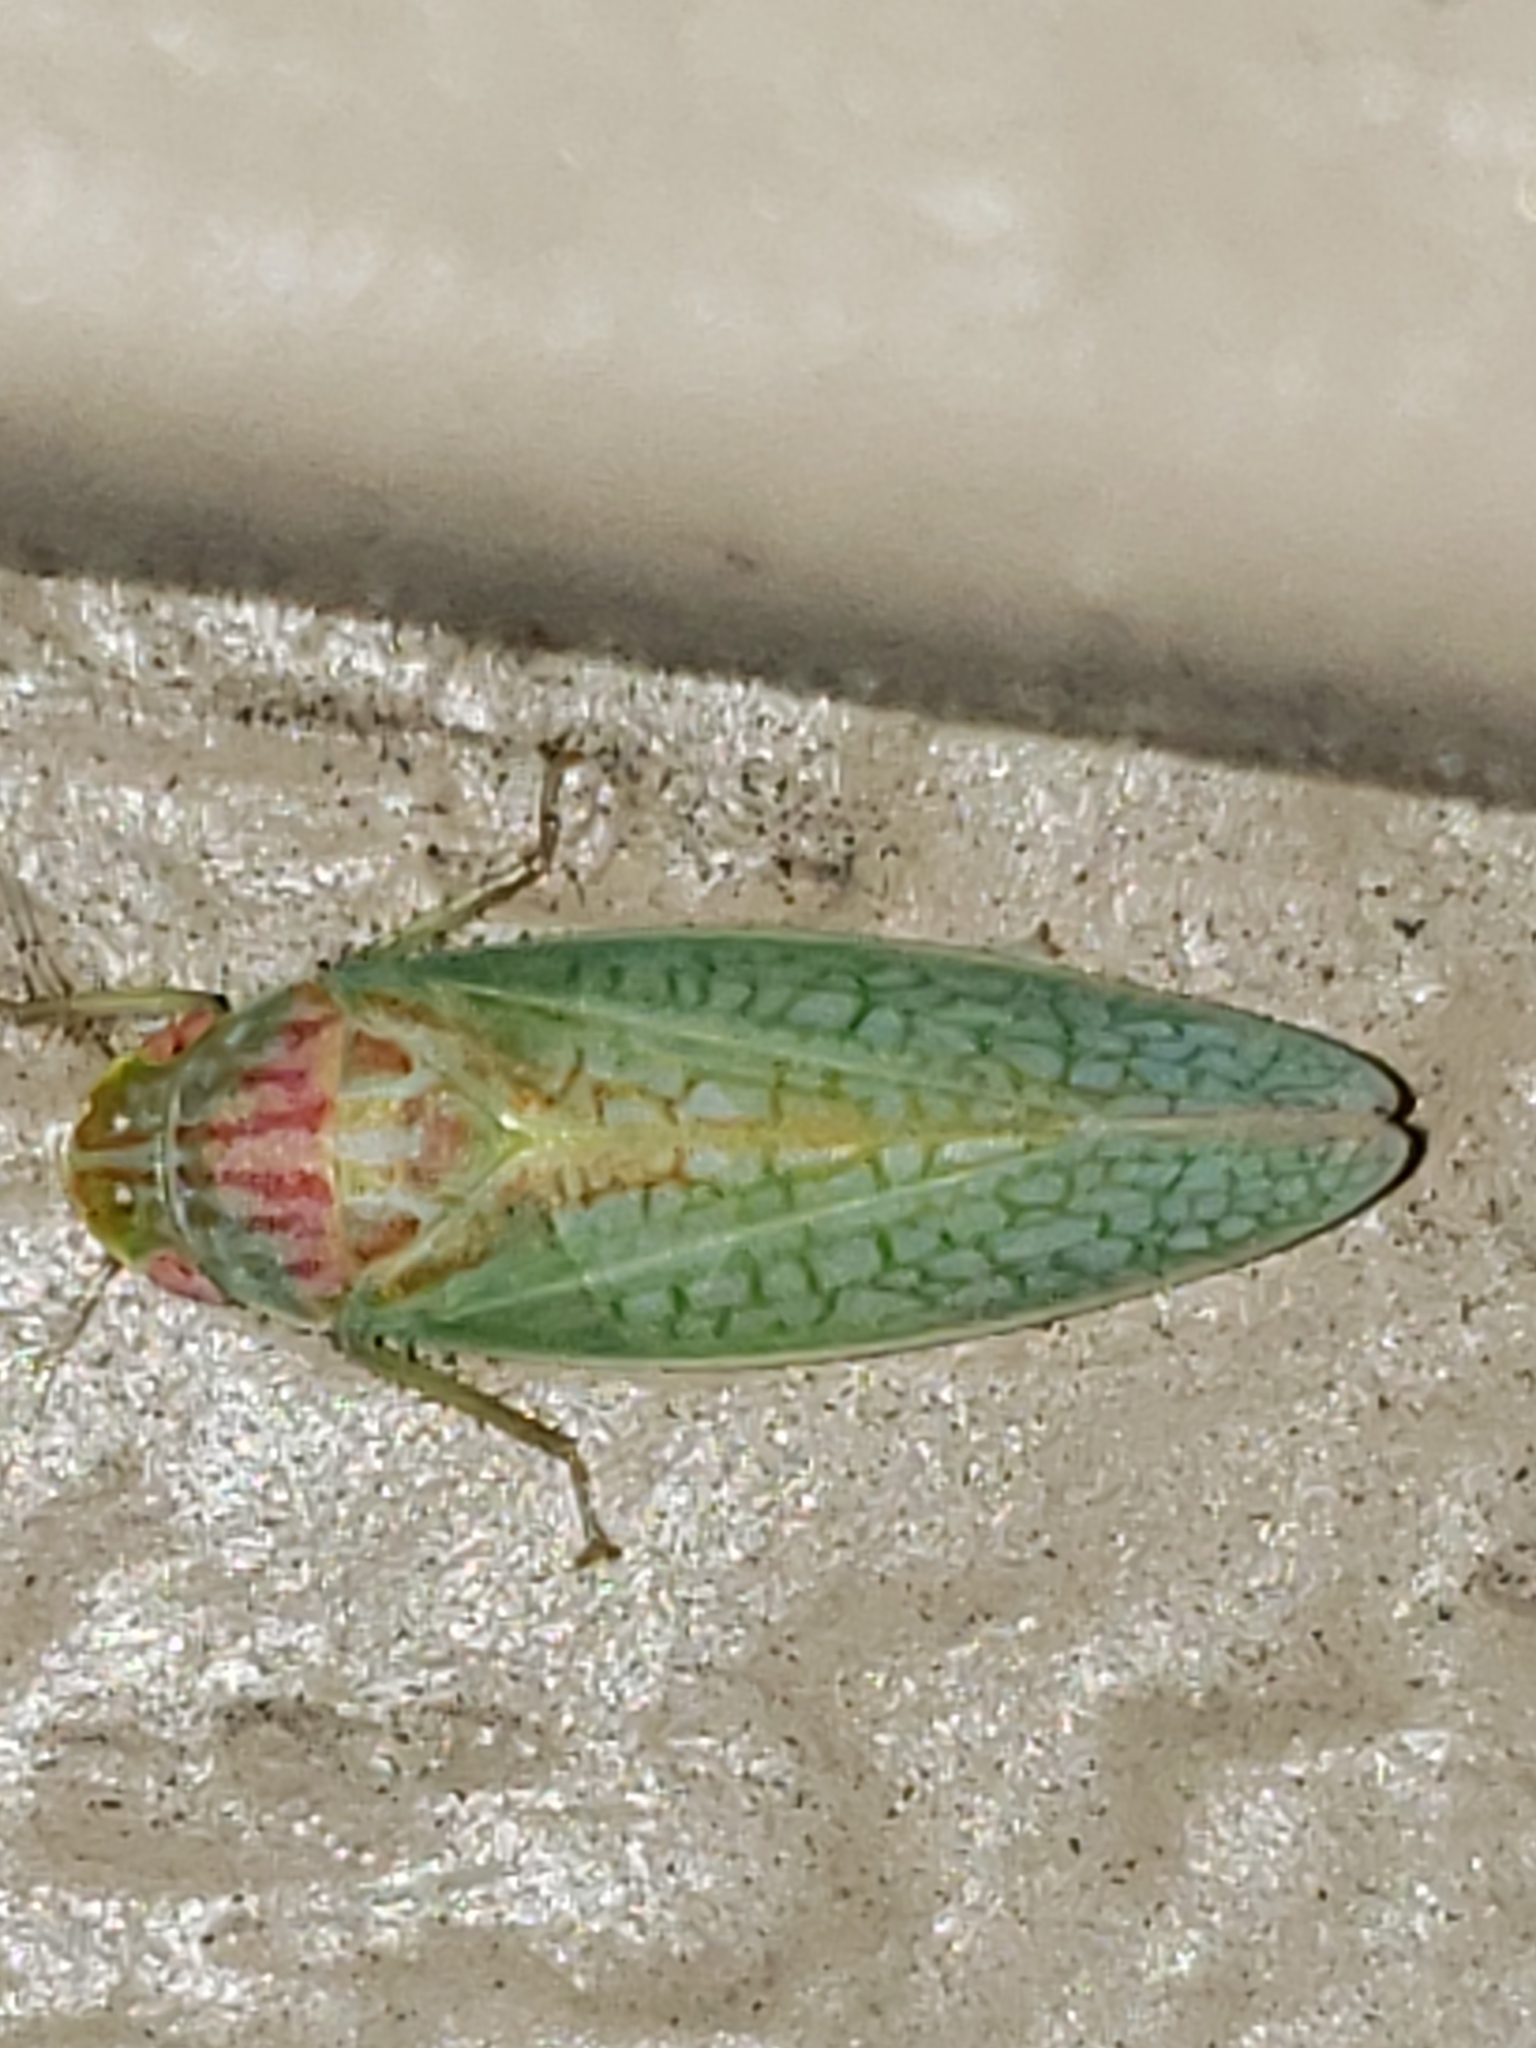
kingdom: Animalia
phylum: Arthropoda
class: Insecta
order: Hemiptera
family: Cicadellidae
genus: Gyponana
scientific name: Gyponana octolineata
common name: Eight-lined leafhopper
